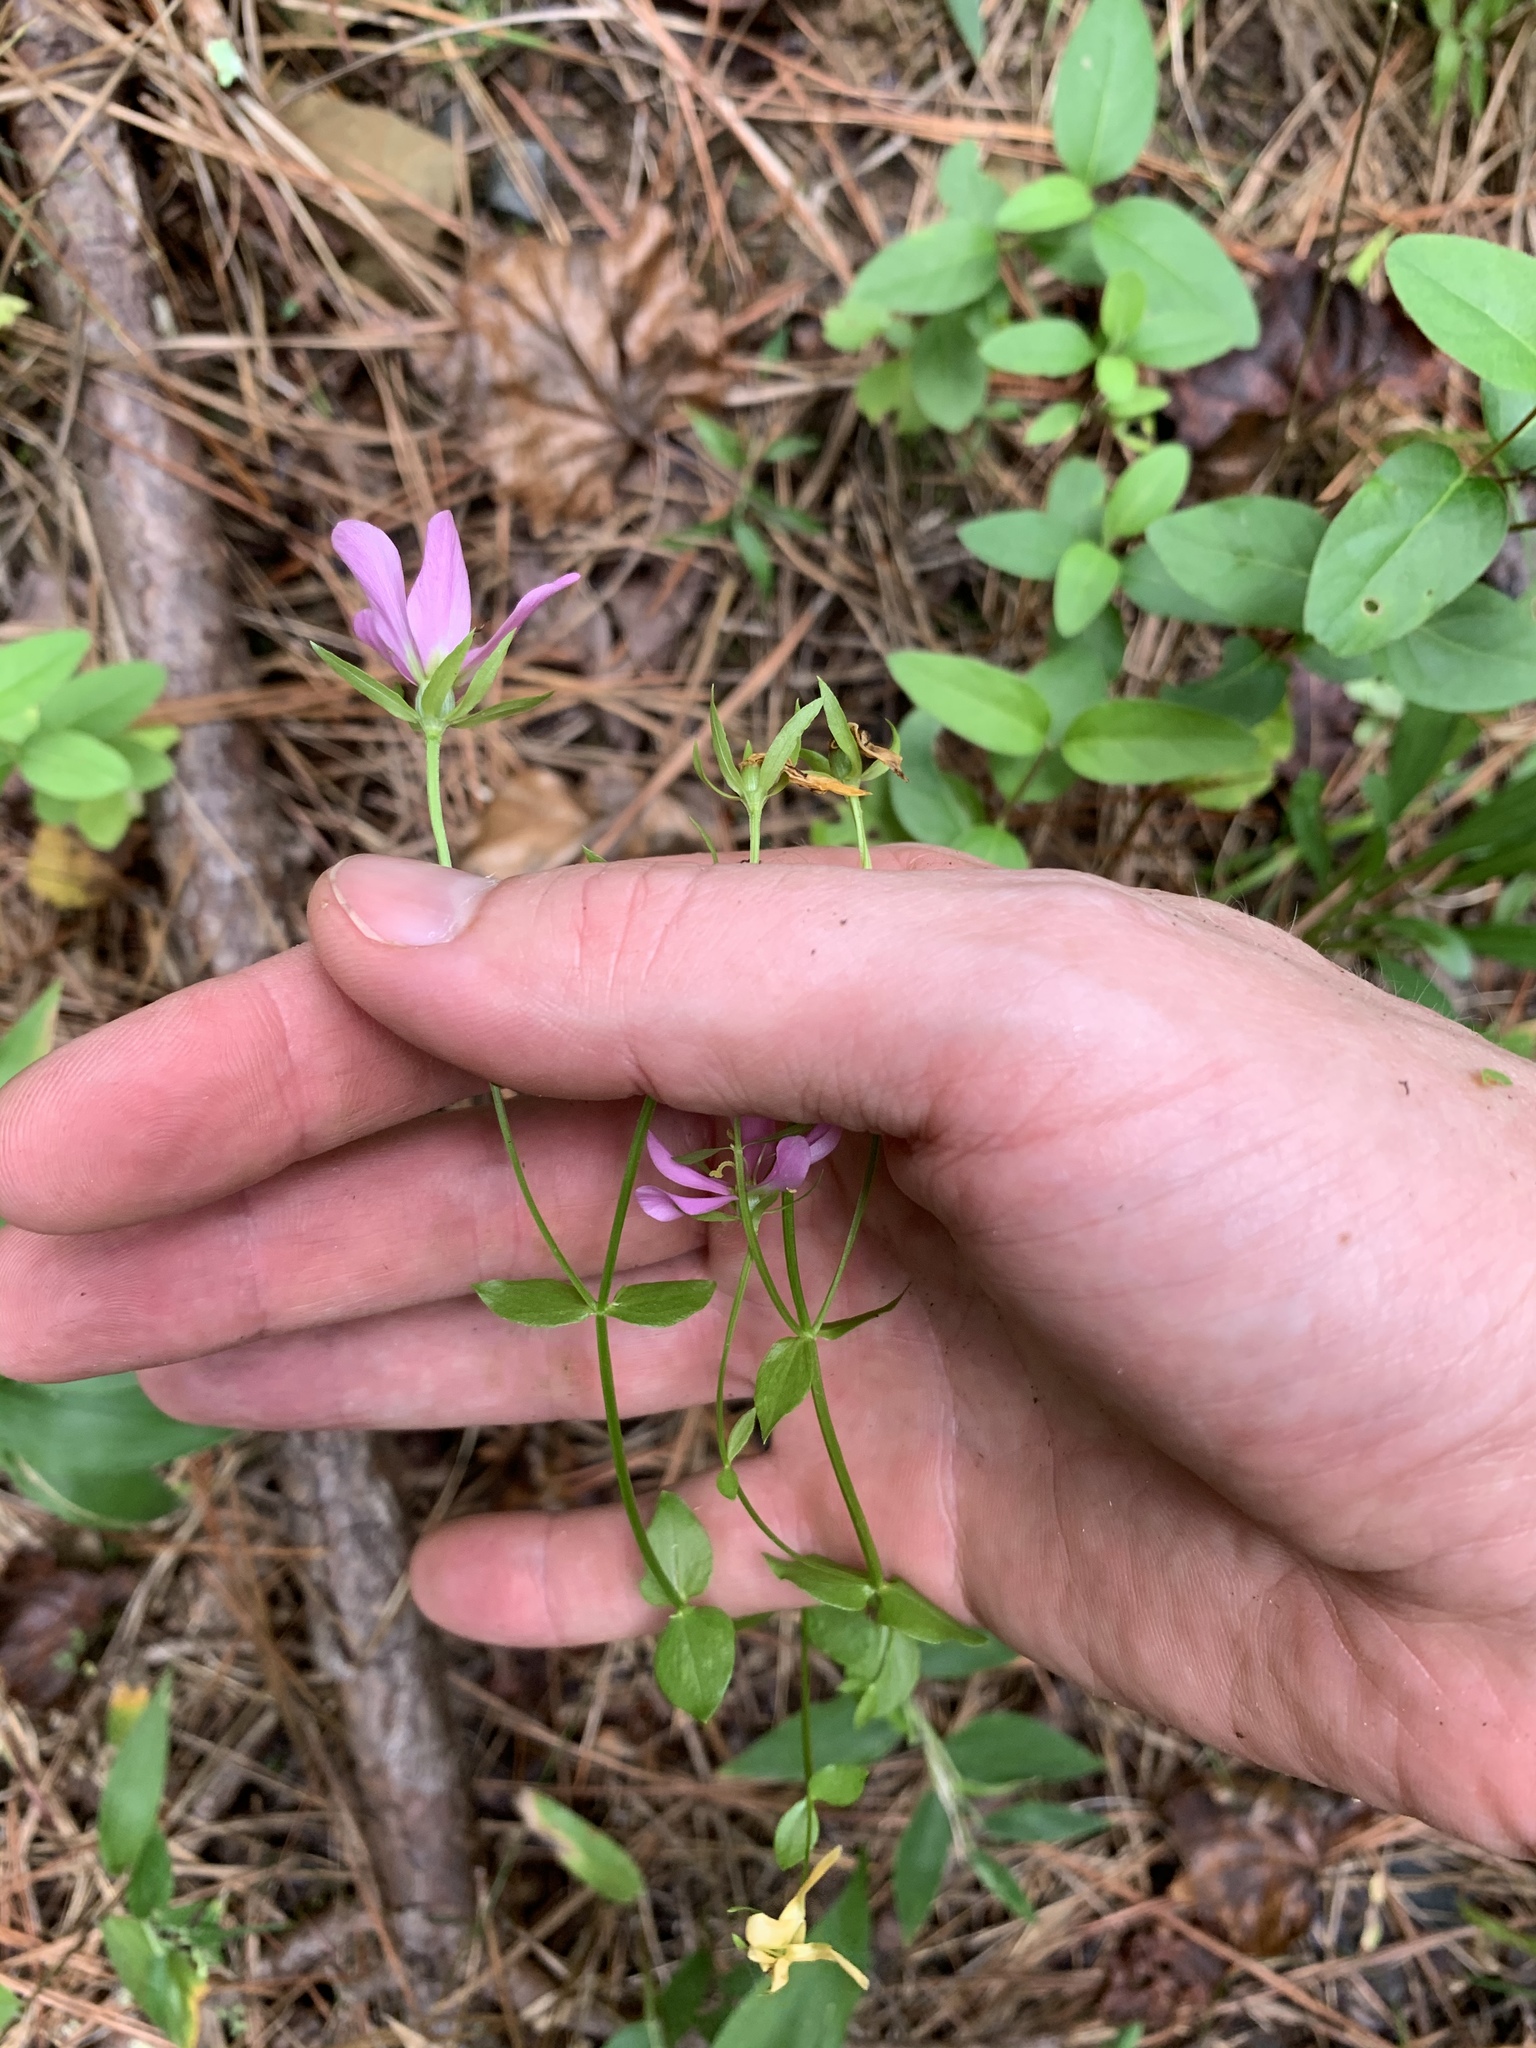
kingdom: Plantae
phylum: Tracheophyta
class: Magnoliopsida
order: Gentianales
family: Gentianaceae
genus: Sabatia
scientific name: Sabatia angularis
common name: Rose-pink
